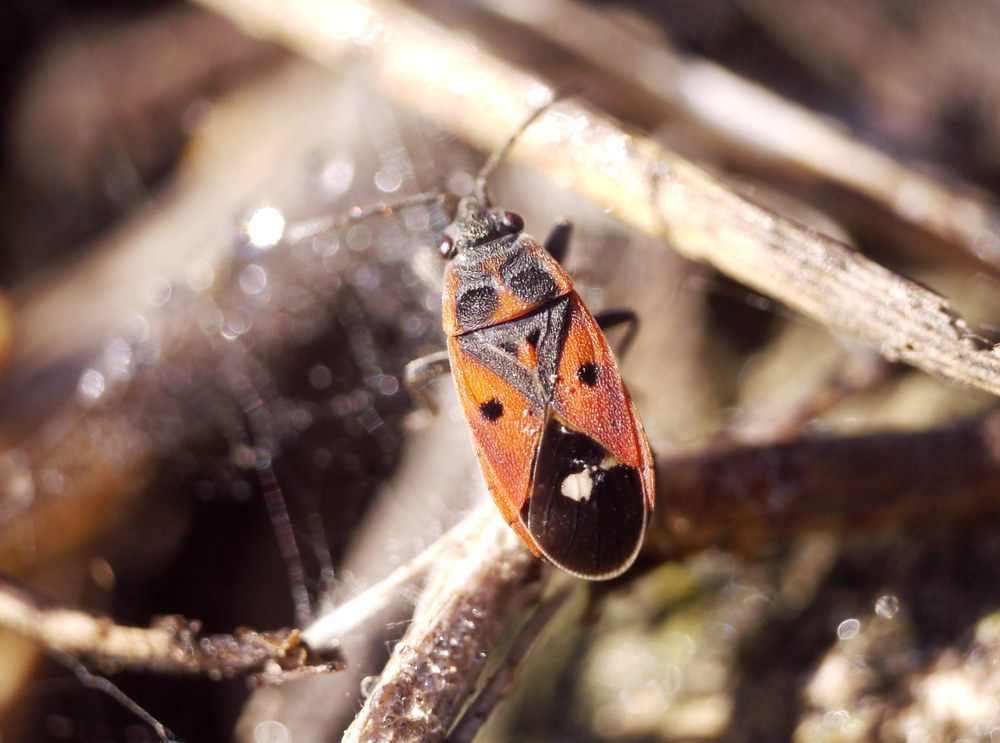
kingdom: Animalia
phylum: Arthropoda
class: Insecta
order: Hemiptera
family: Lygaeidae
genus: Melanocoryphus
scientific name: Melanocoryphus tristrami
